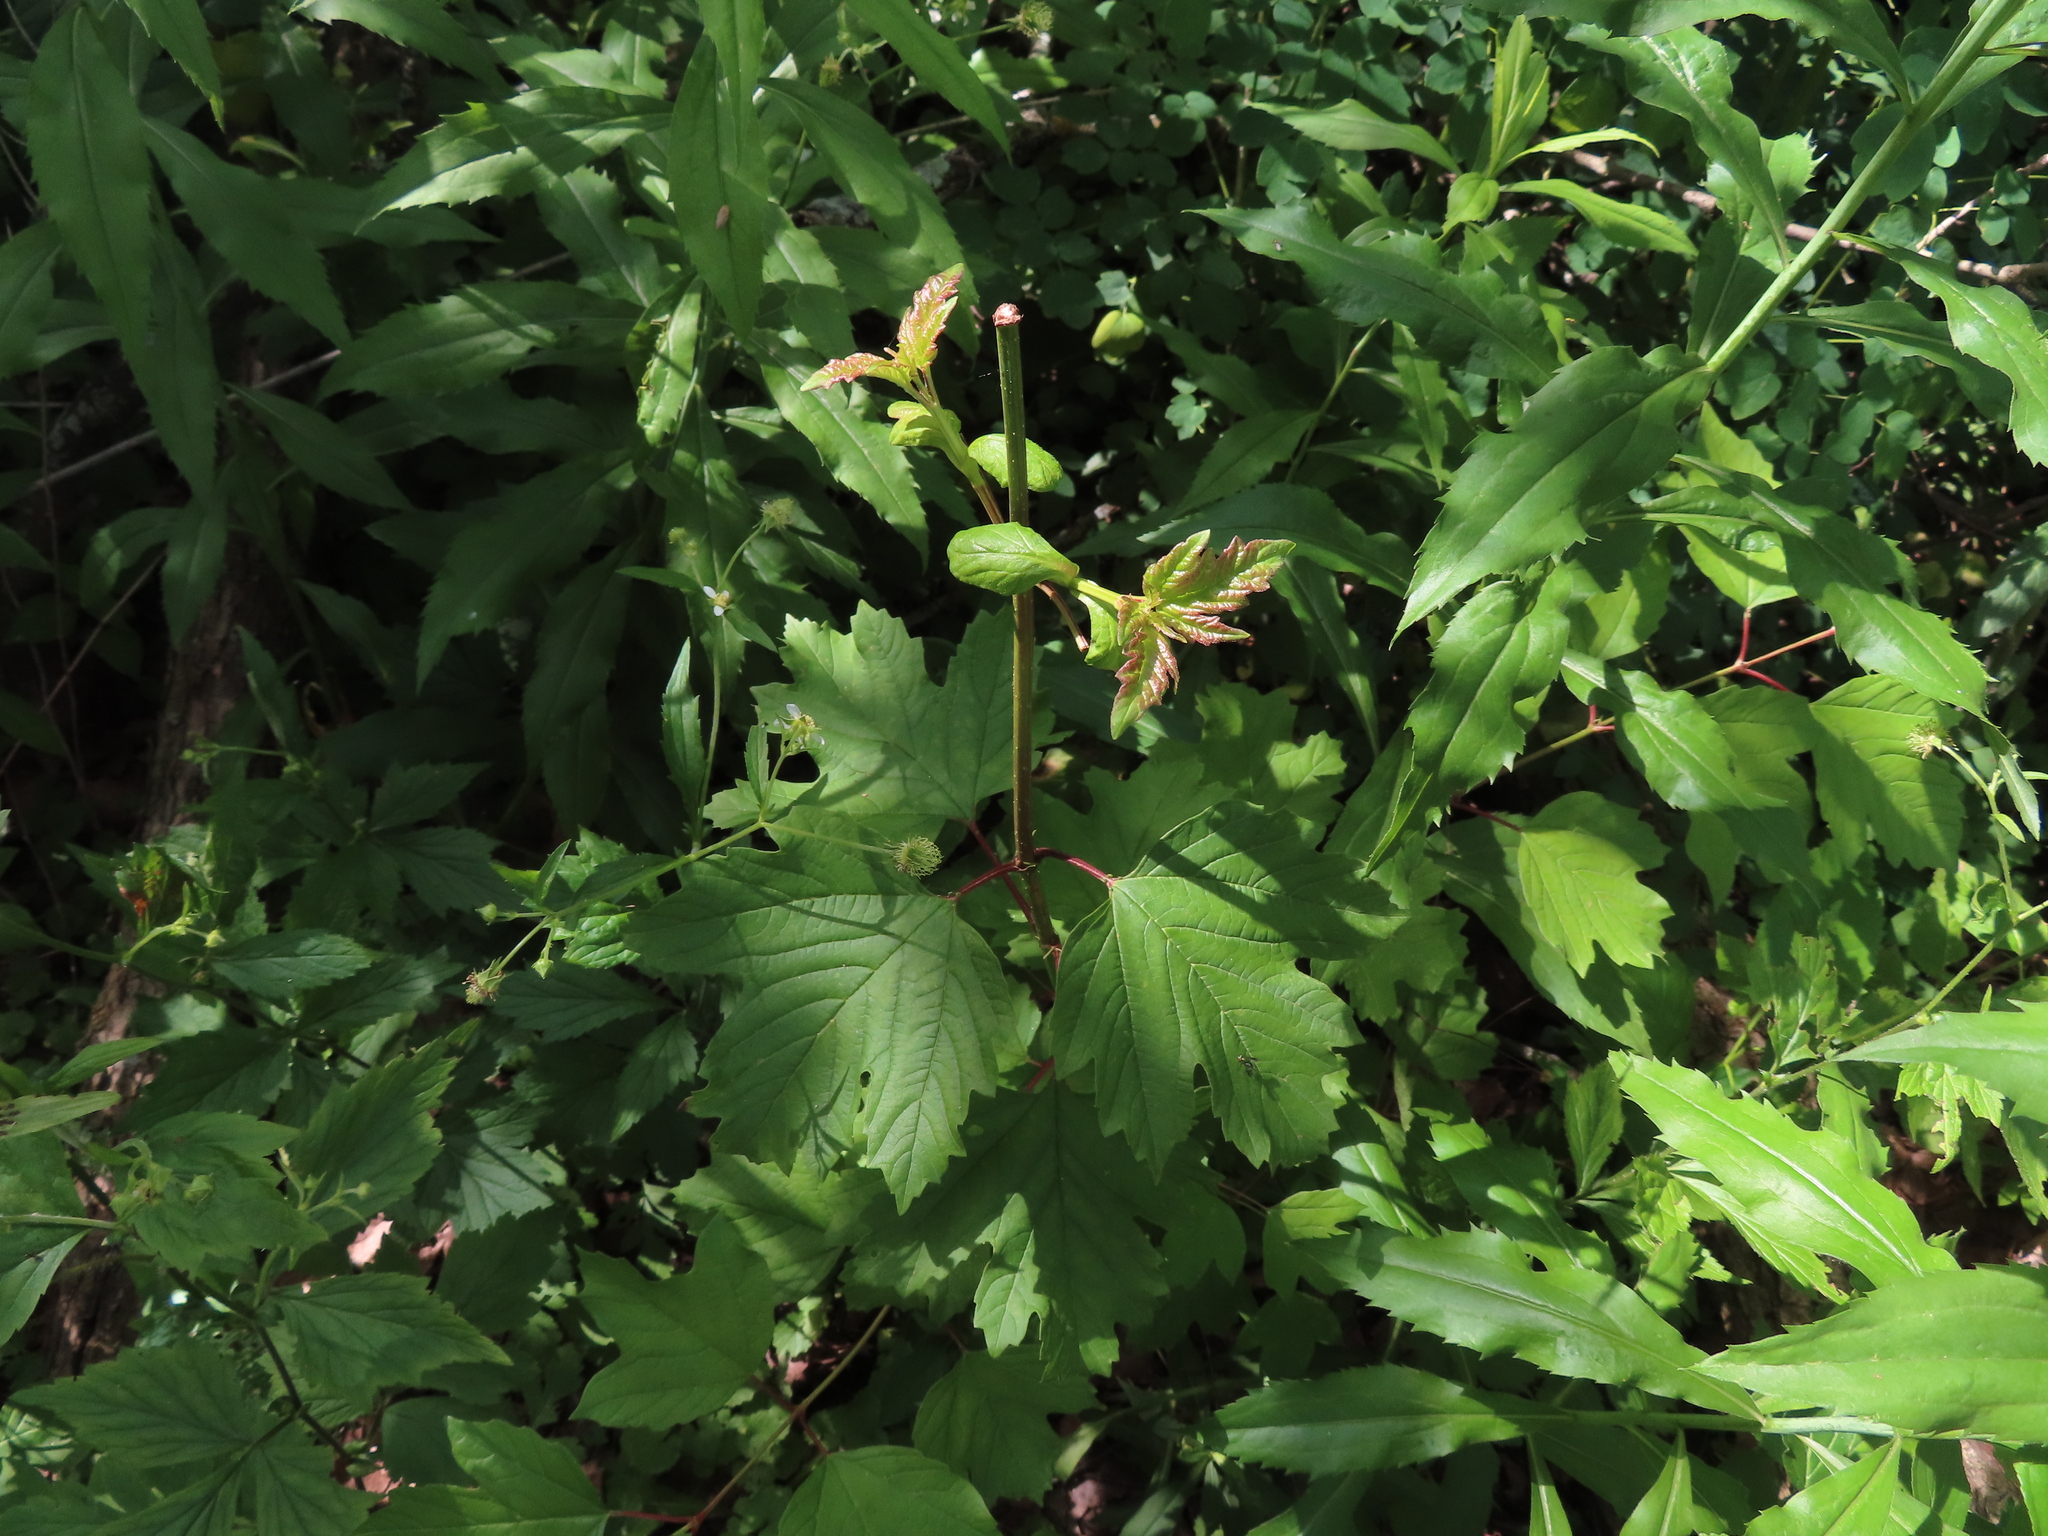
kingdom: Plantae
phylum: Tracheophyta
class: Magnoliopsida
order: Dipsacales
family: Viburnaceae
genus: Viburnum
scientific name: Viburnum opulus
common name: Guelder-rose
